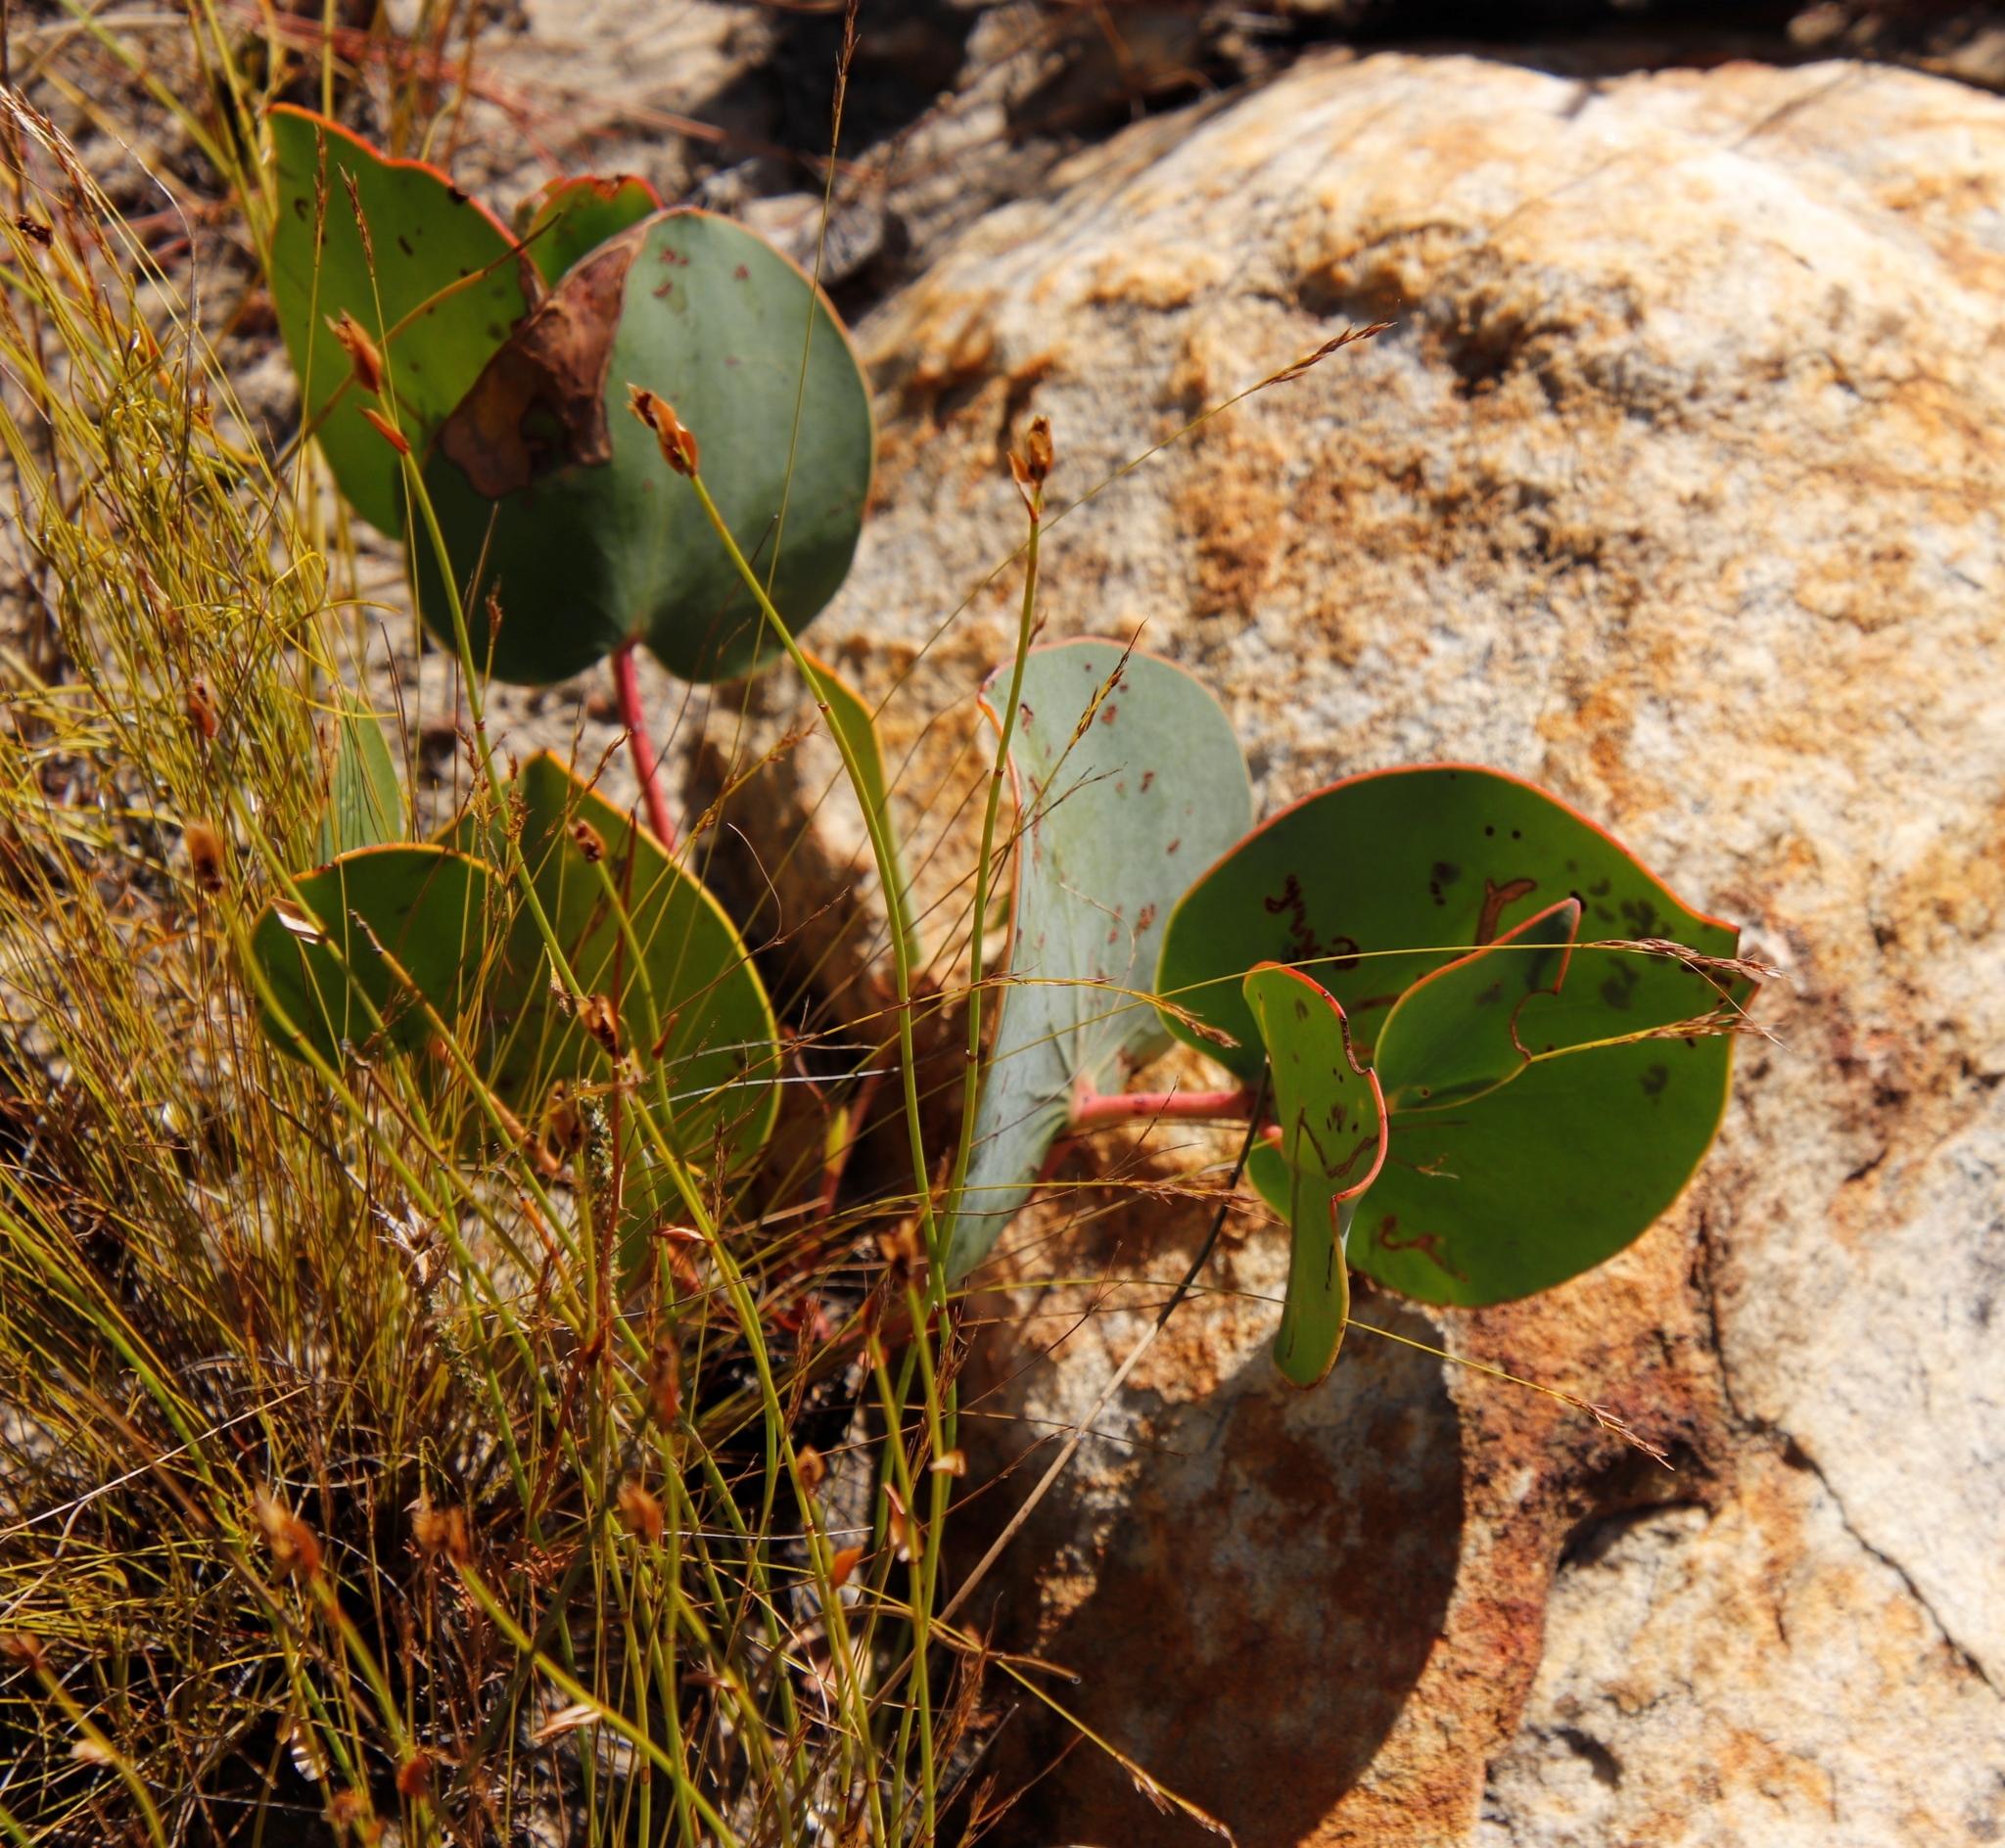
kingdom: Plantae
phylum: Tracheophyta
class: Magnoliopsida
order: Proteales
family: Proteaceae
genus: Protea
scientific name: Protea cordata
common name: Heart-leaf sugarbush
